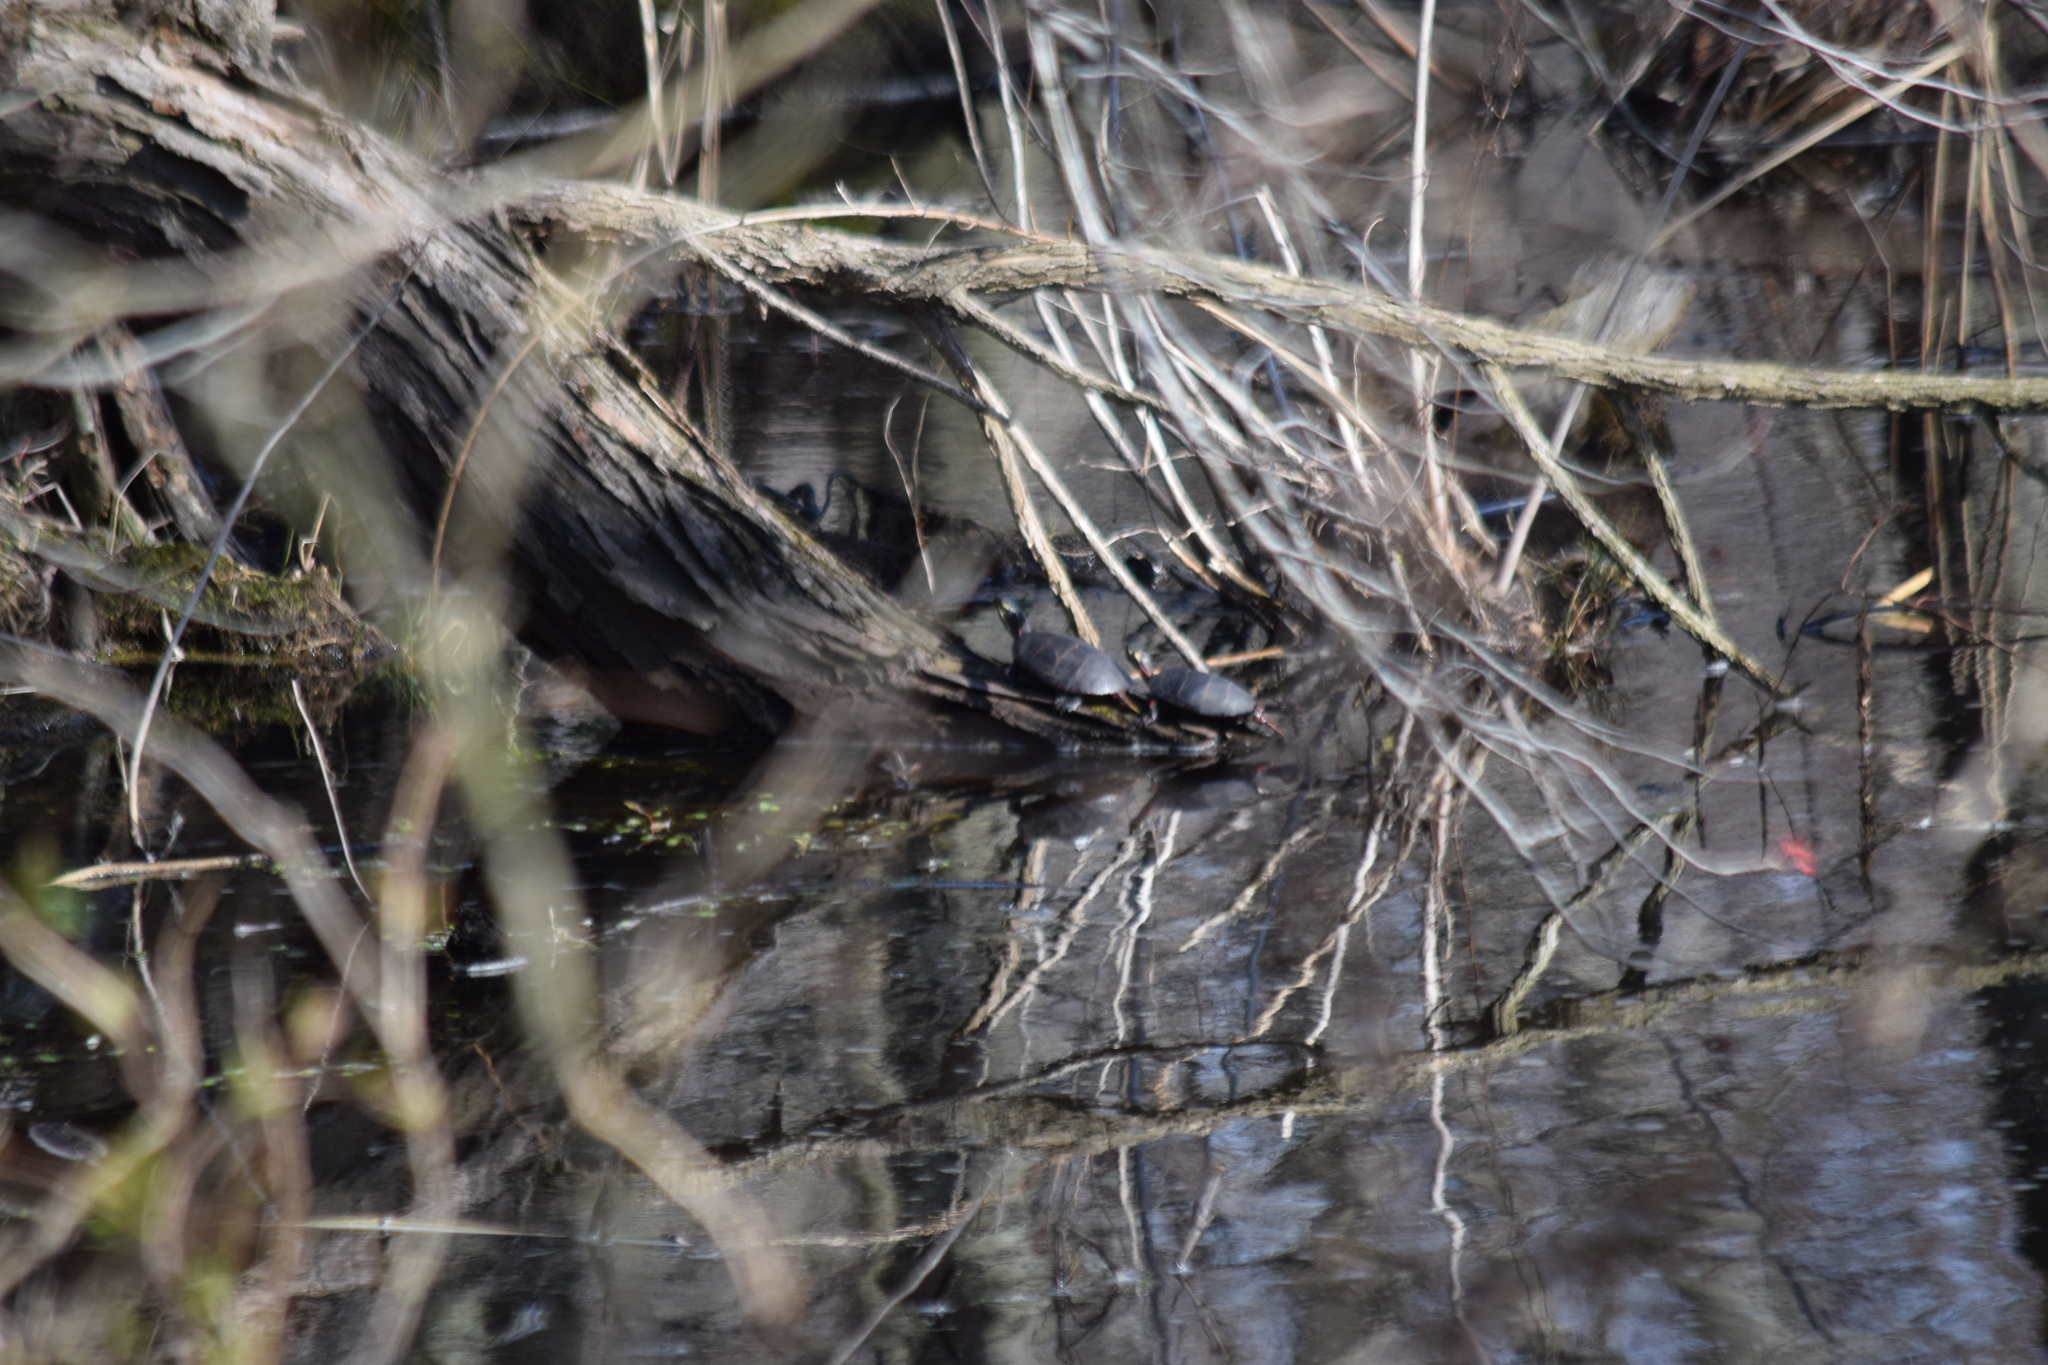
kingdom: Animalia
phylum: Chordata
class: Testudines
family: Emydidae
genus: Chrysemys
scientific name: Chrysemys picta
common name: Painted turtle
